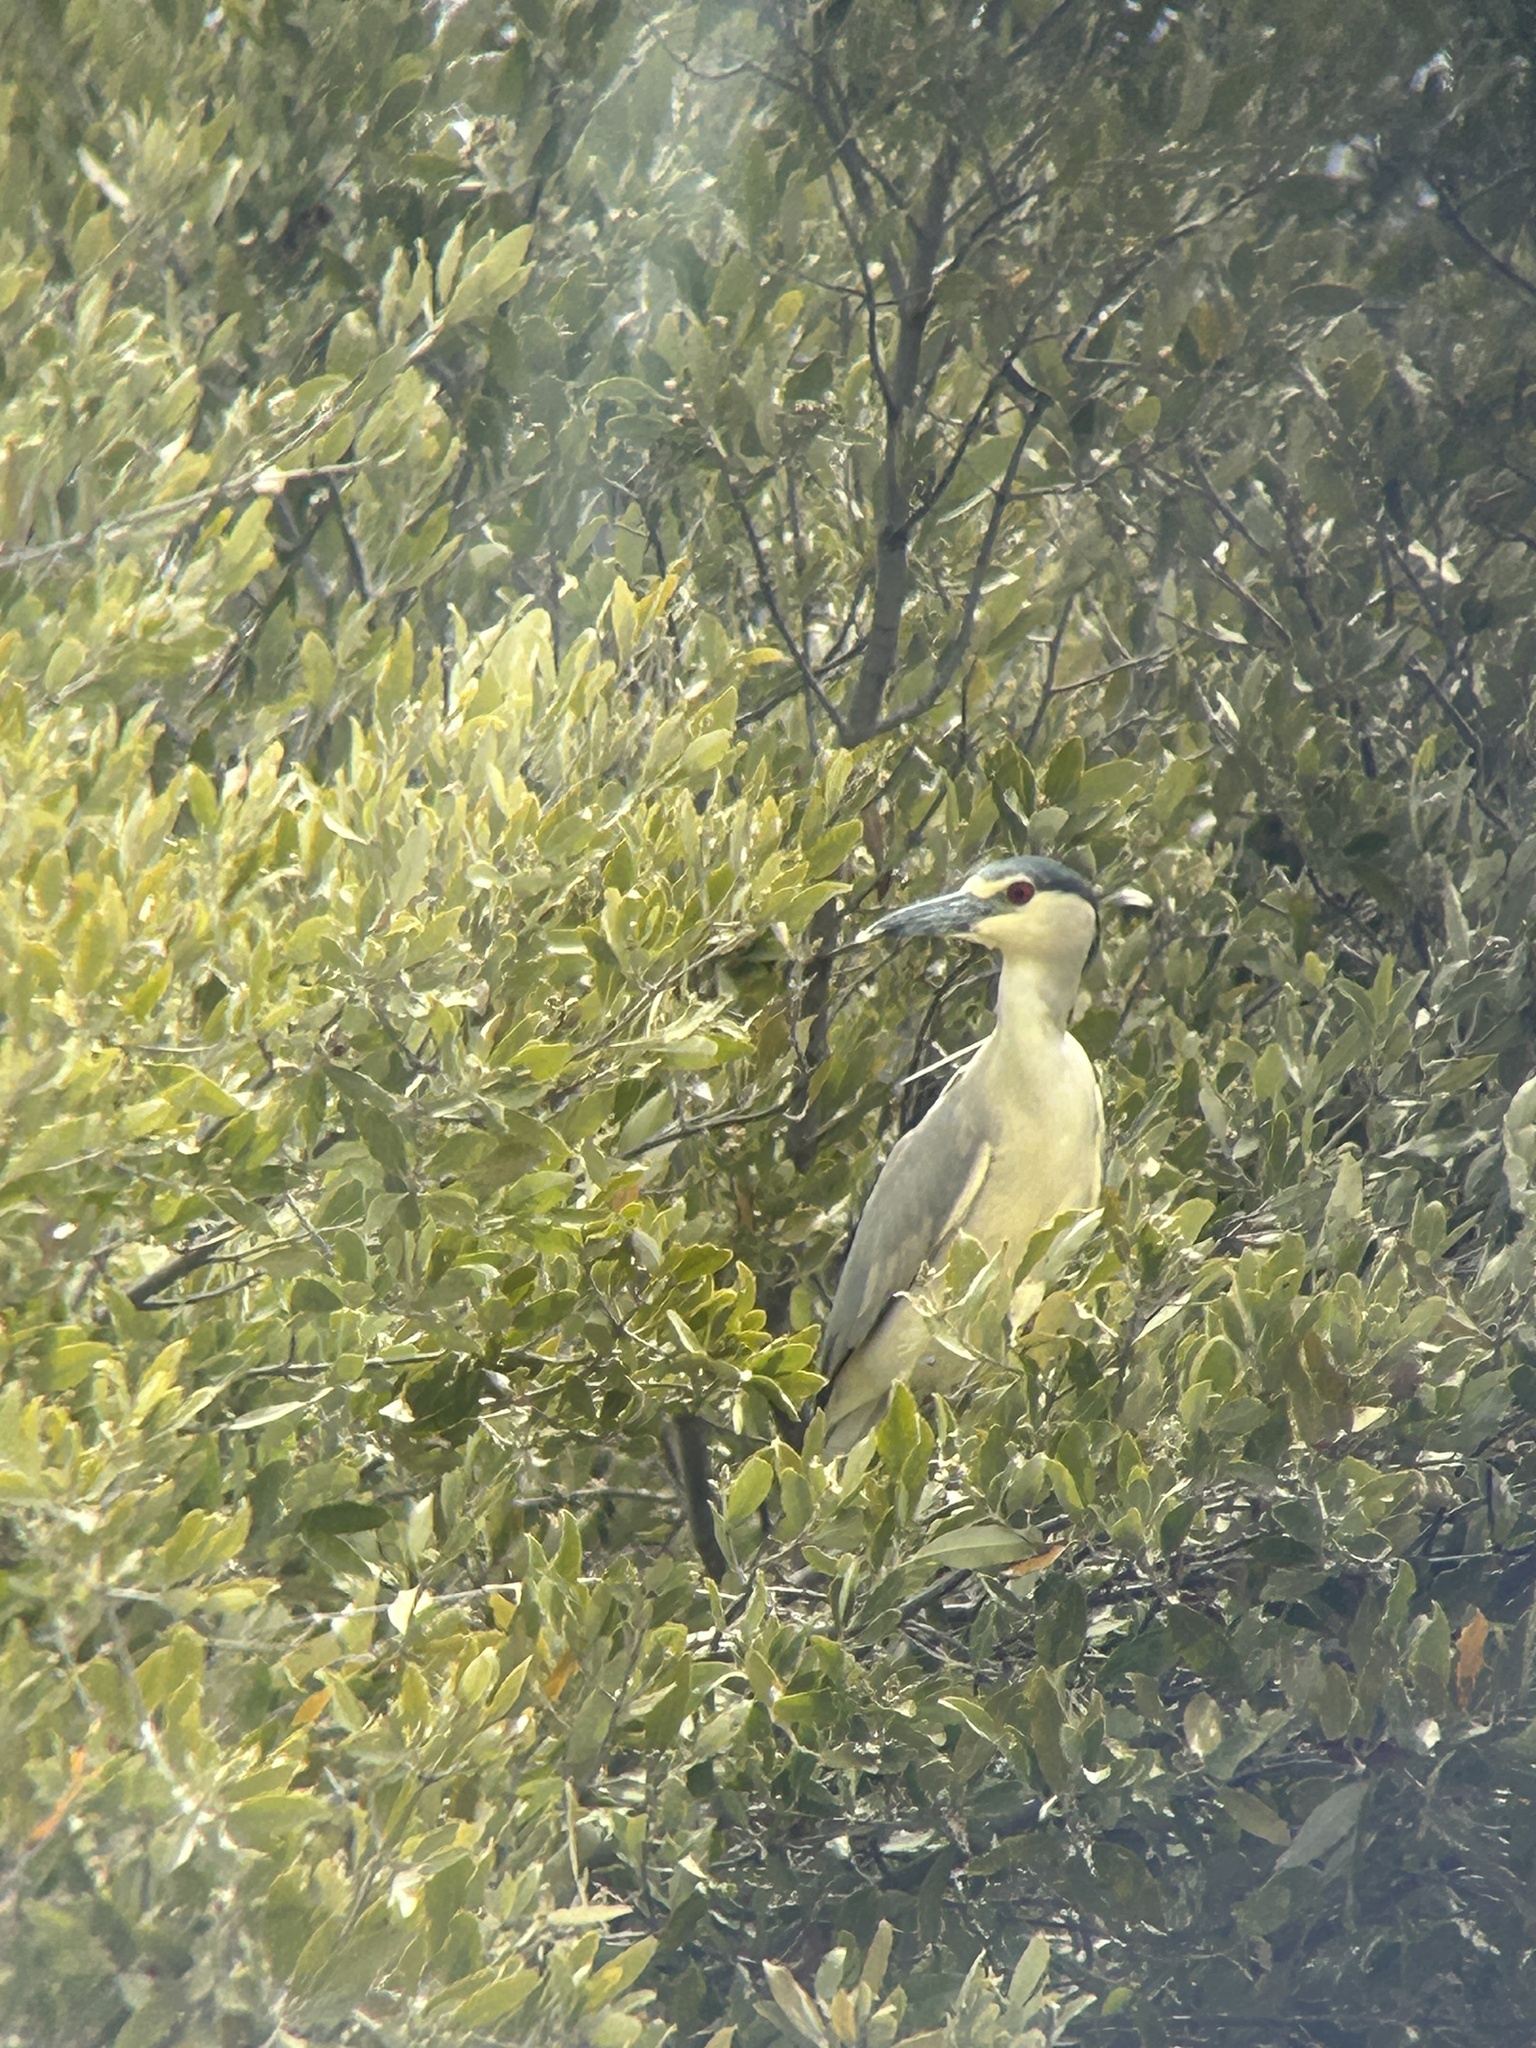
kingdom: Animalia
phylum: Chordata
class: Aves
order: Pelecaniformes
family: Ardeidae
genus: Nycticorax
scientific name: Nycticorax nycticorax
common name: Black-crowned night heron
